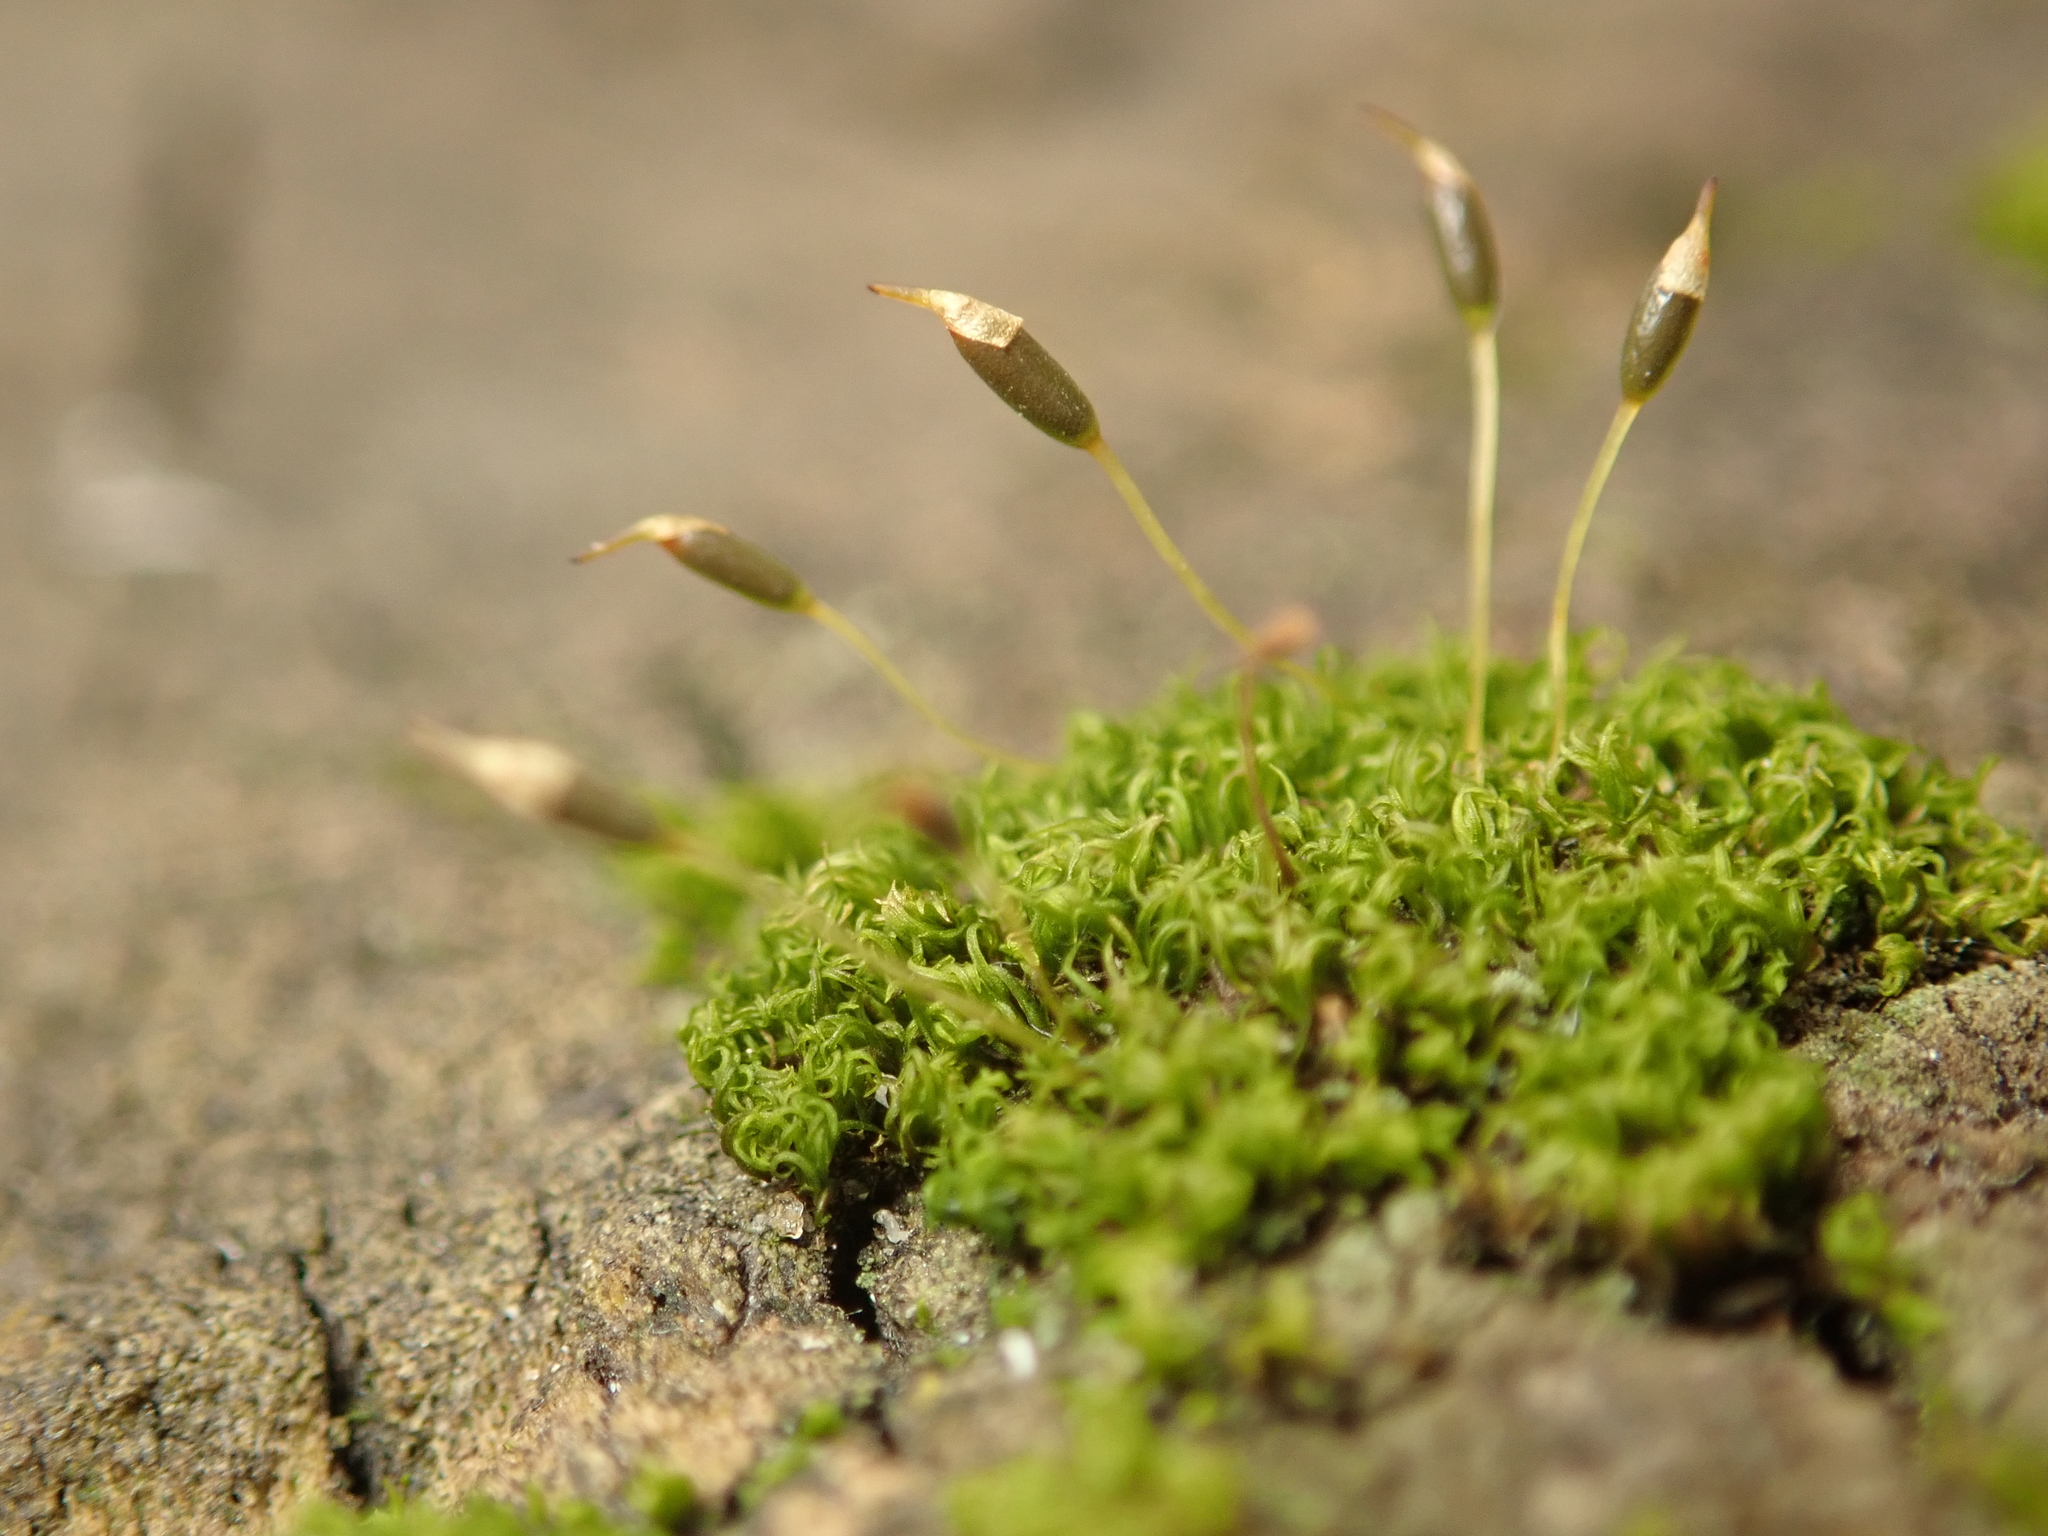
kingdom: Plantae
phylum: Bryophyta
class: Bryopsida
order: Dicranales
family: Rhabdoweisiaceae
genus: Dicranoweisia
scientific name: Dicranoweisia cirrata
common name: Common pincushion
